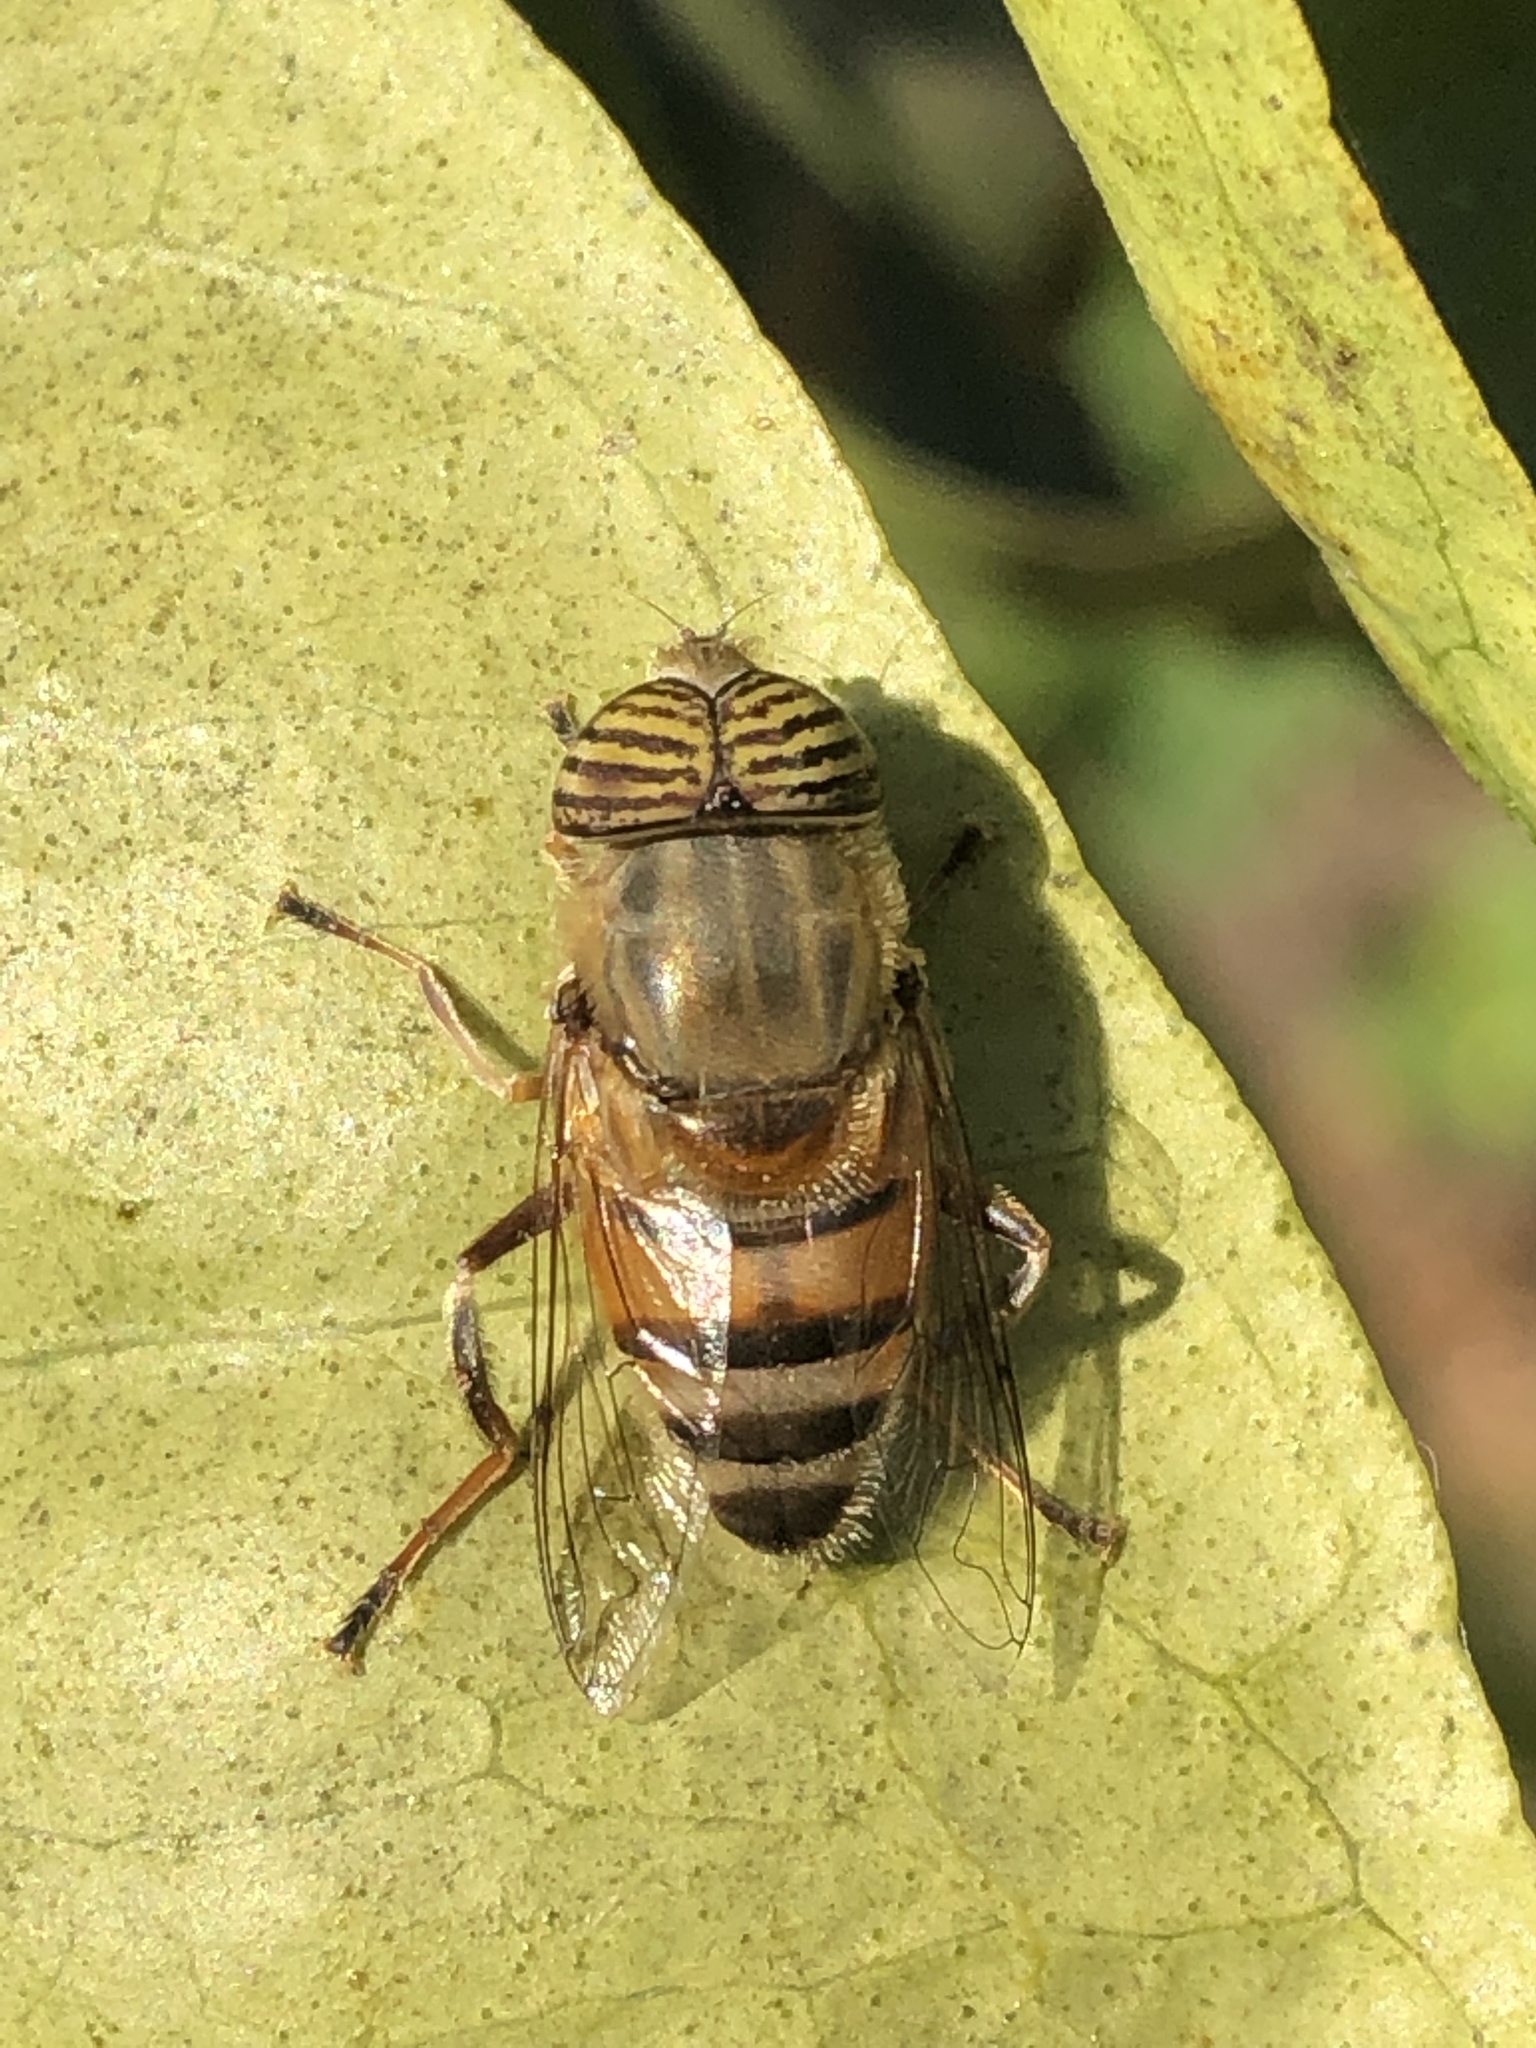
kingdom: Animalia
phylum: Arthropoda
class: Insecta
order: Diptera
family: Syrphidae
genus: Eristalinus
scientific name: Eristalinus taeniops
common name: Syrphid fly
